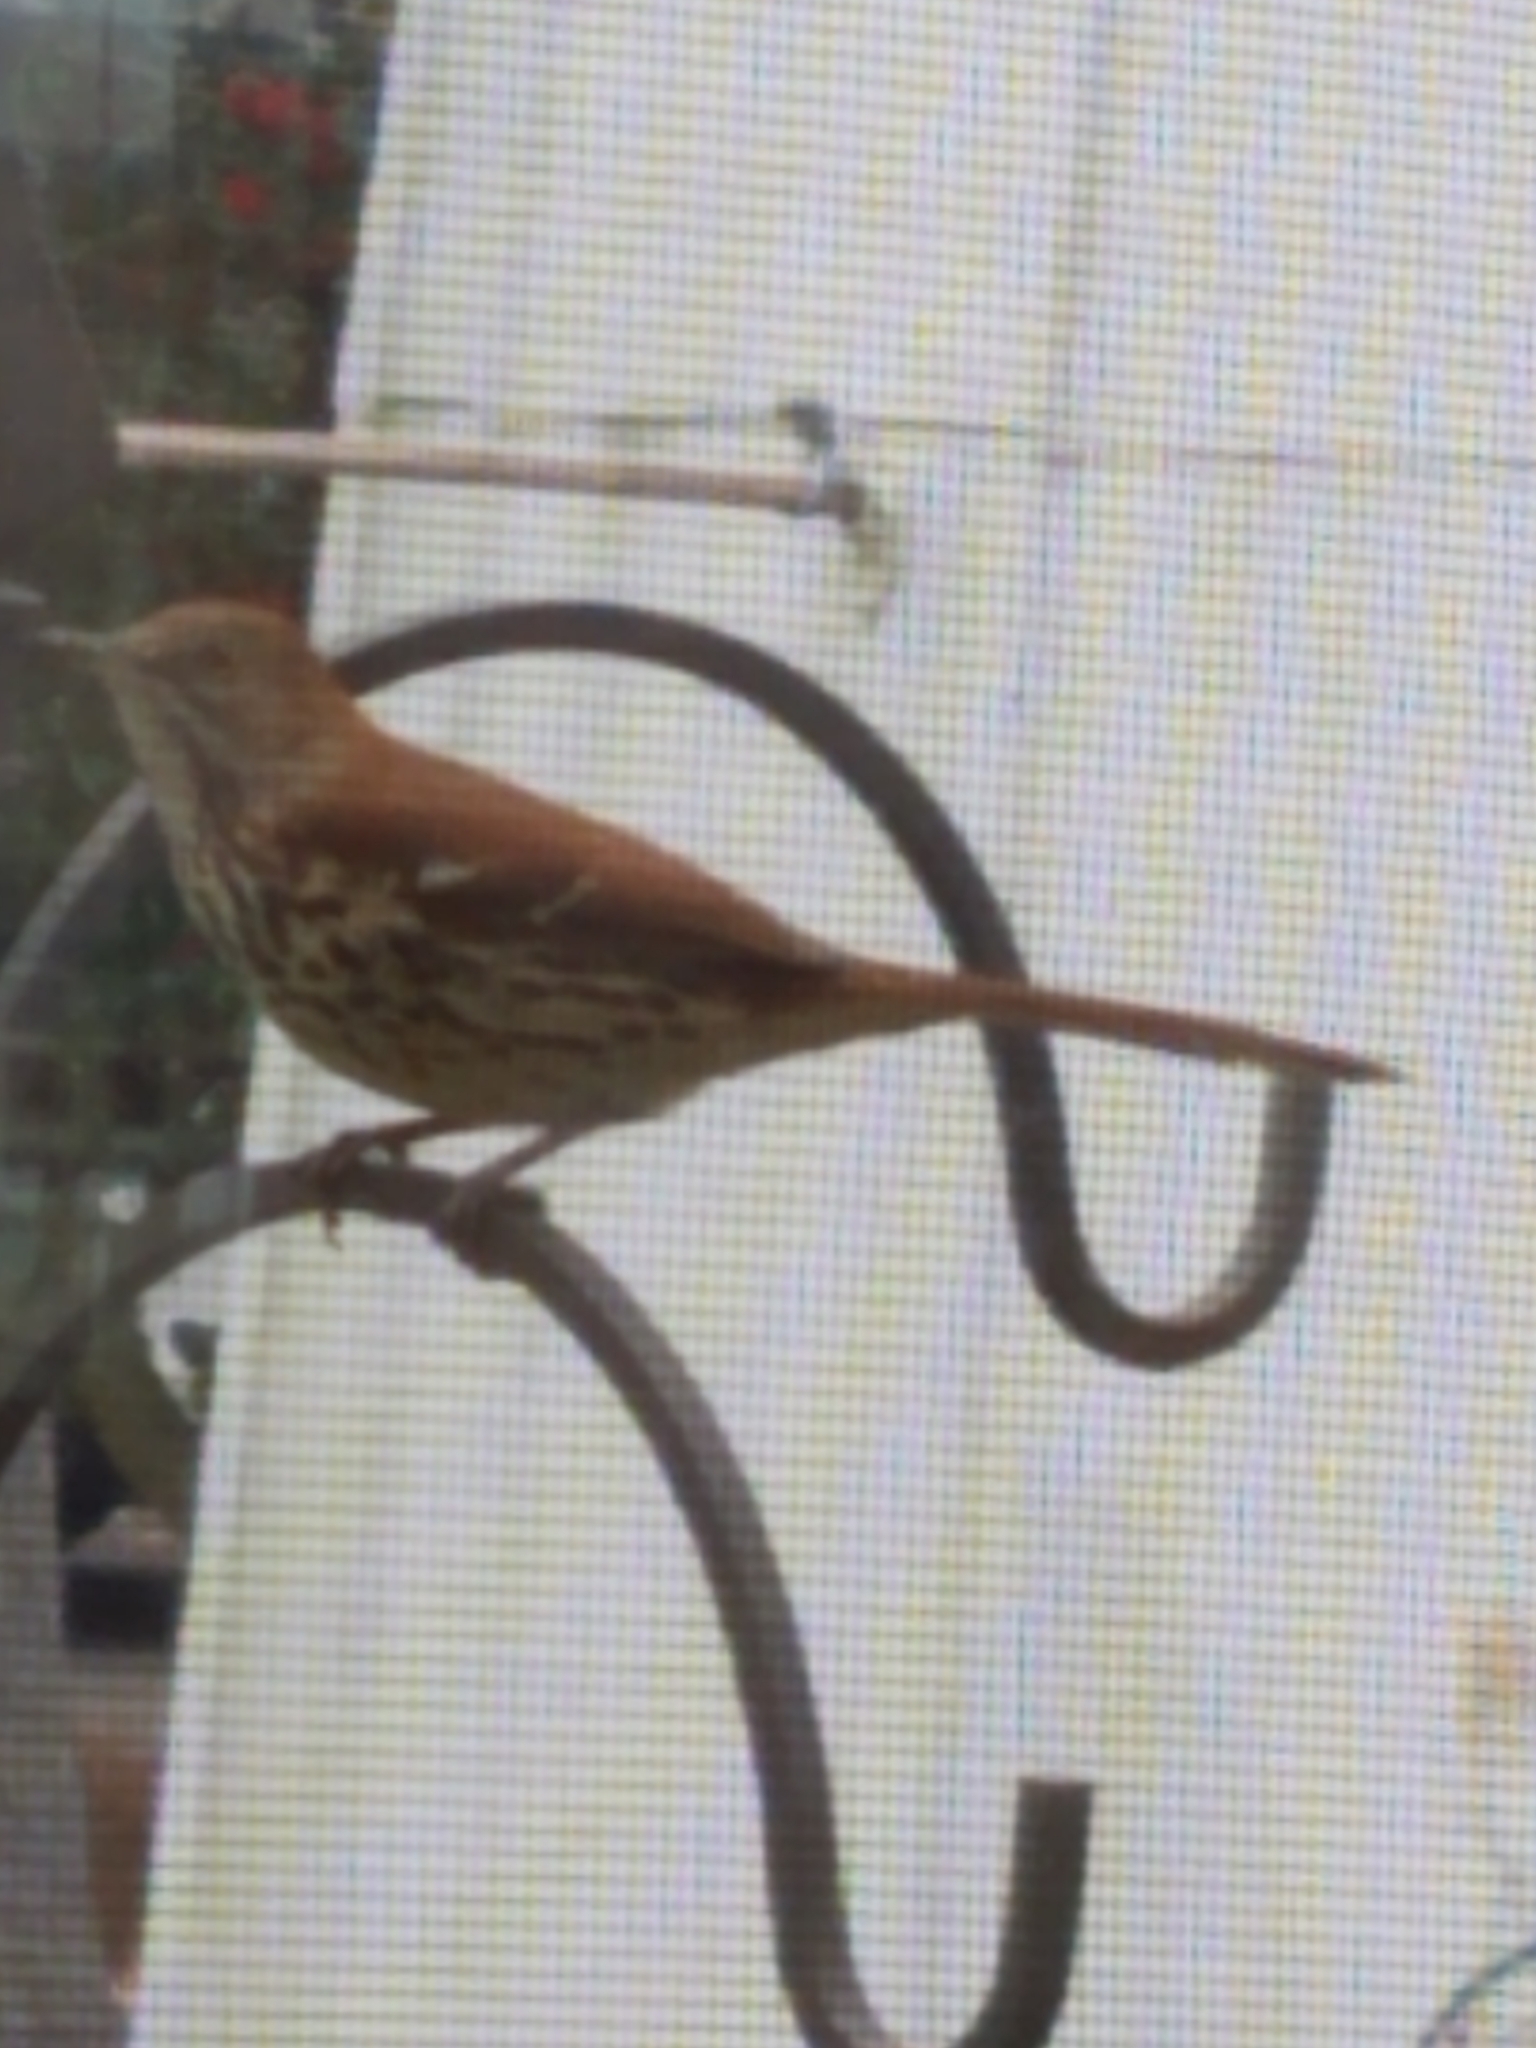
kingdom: Animalia
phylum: Chordata
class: Aves
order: Passeriformes
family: Mimidae
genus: Toxostoma
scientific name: Toxostoma rufum
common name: Brown thrasher
